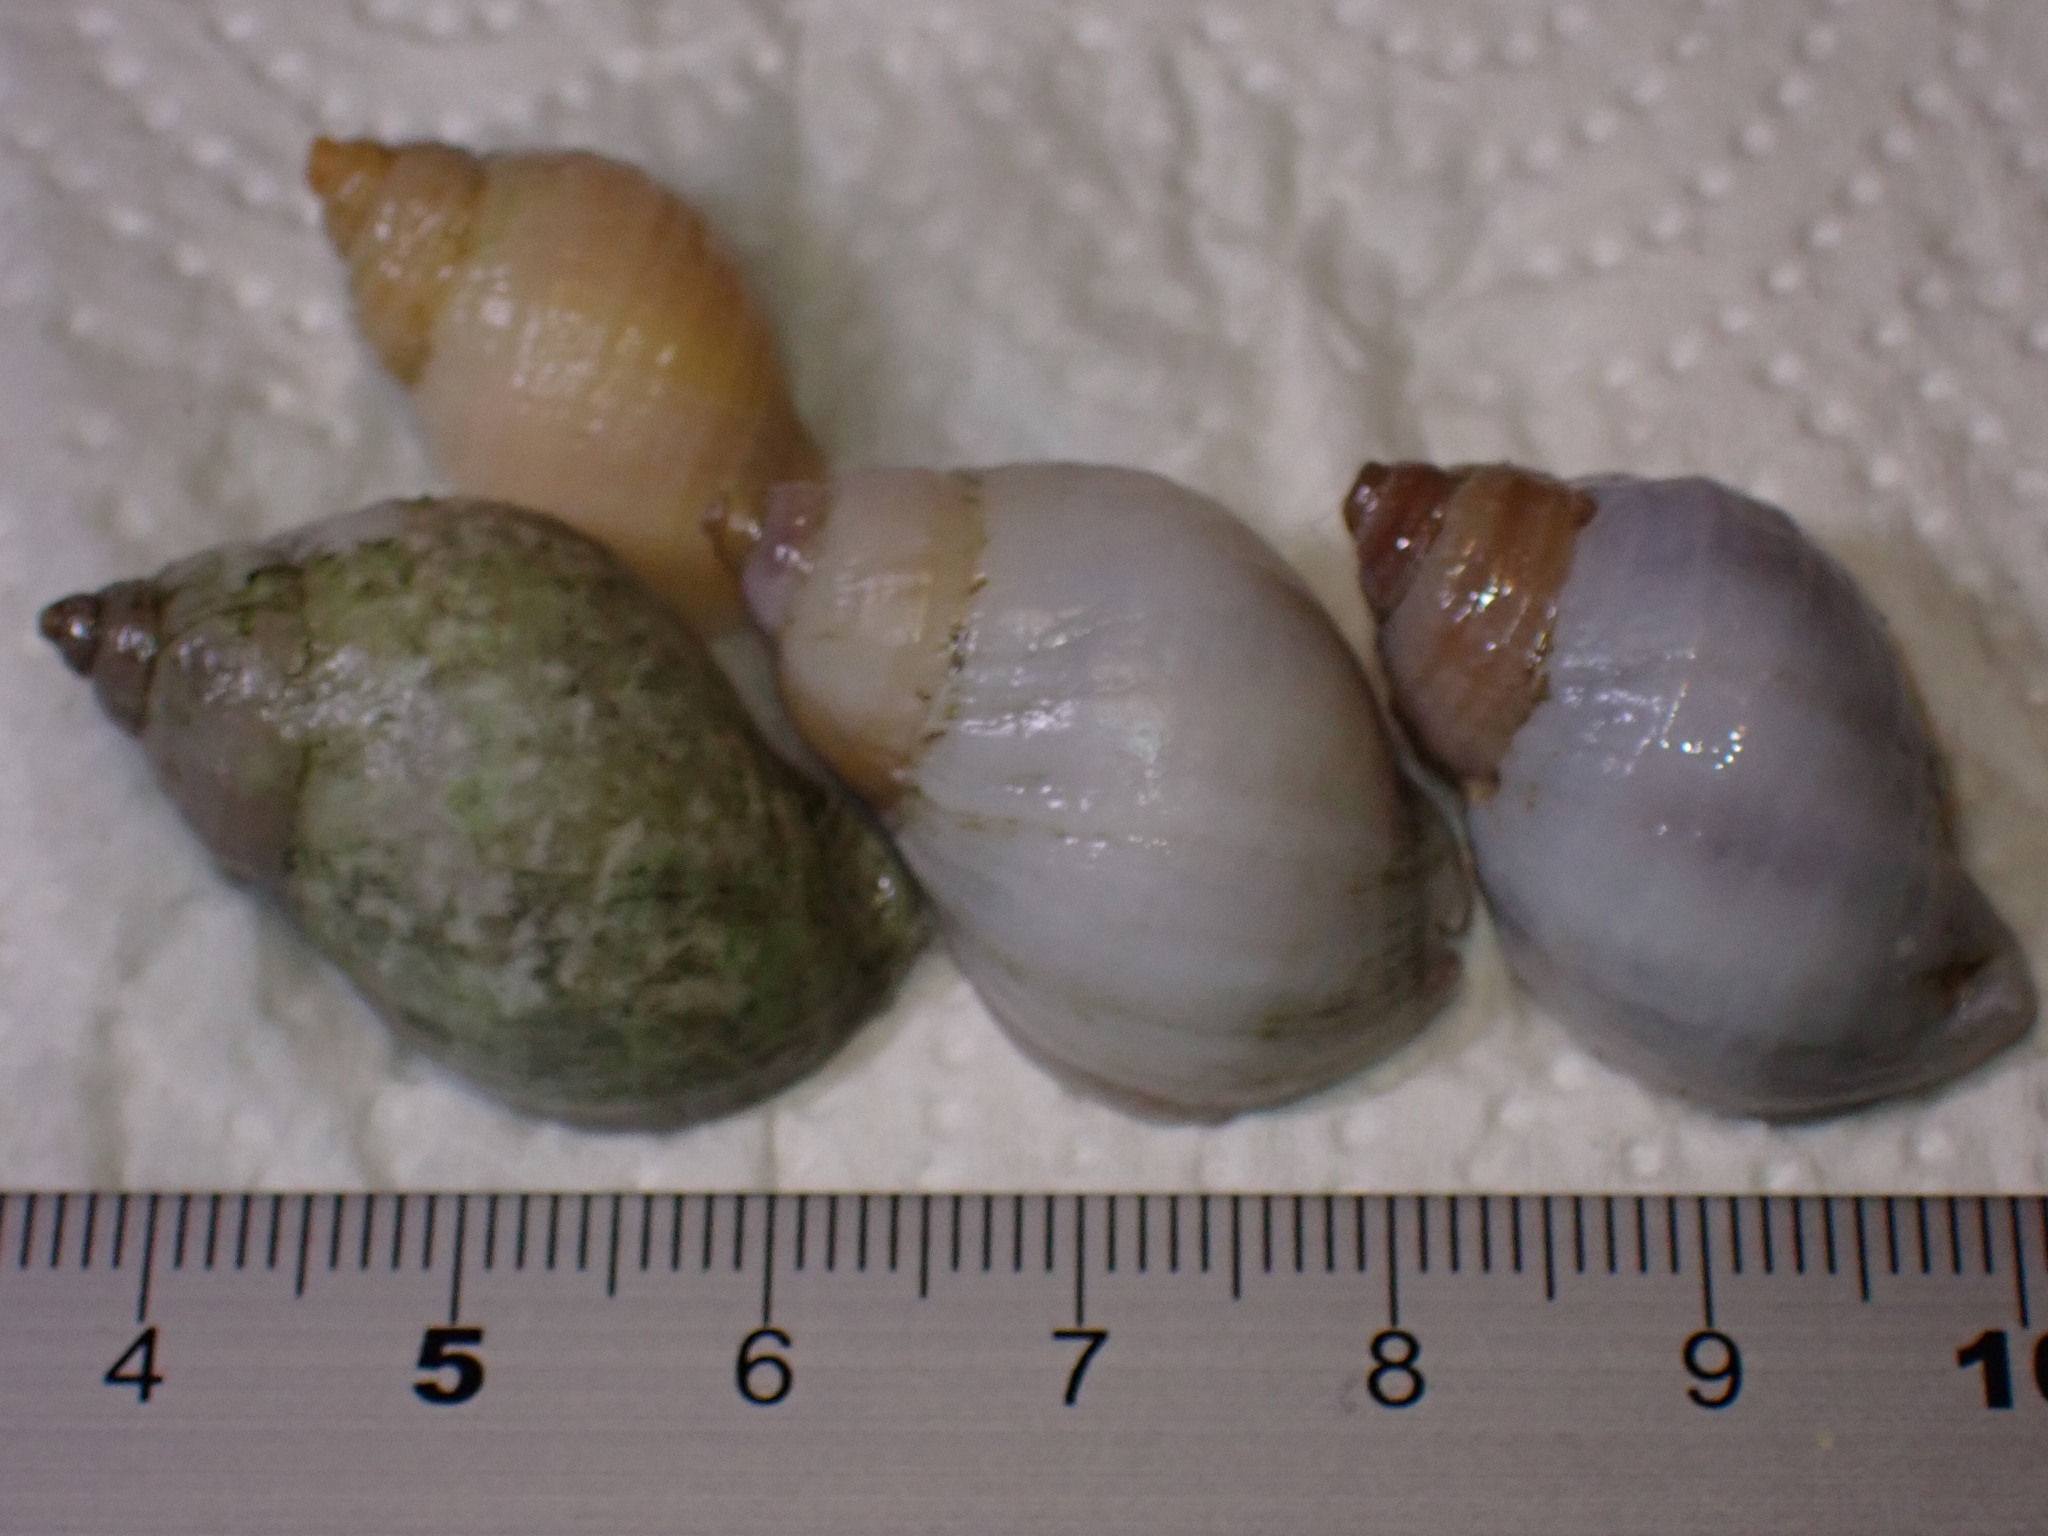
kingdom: Animalia
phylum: Mollusca
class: Gastropoda
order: Neogastropoda
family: Muricidae
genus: Nucella
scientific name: Nucella lapillus
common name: Dog whelk
